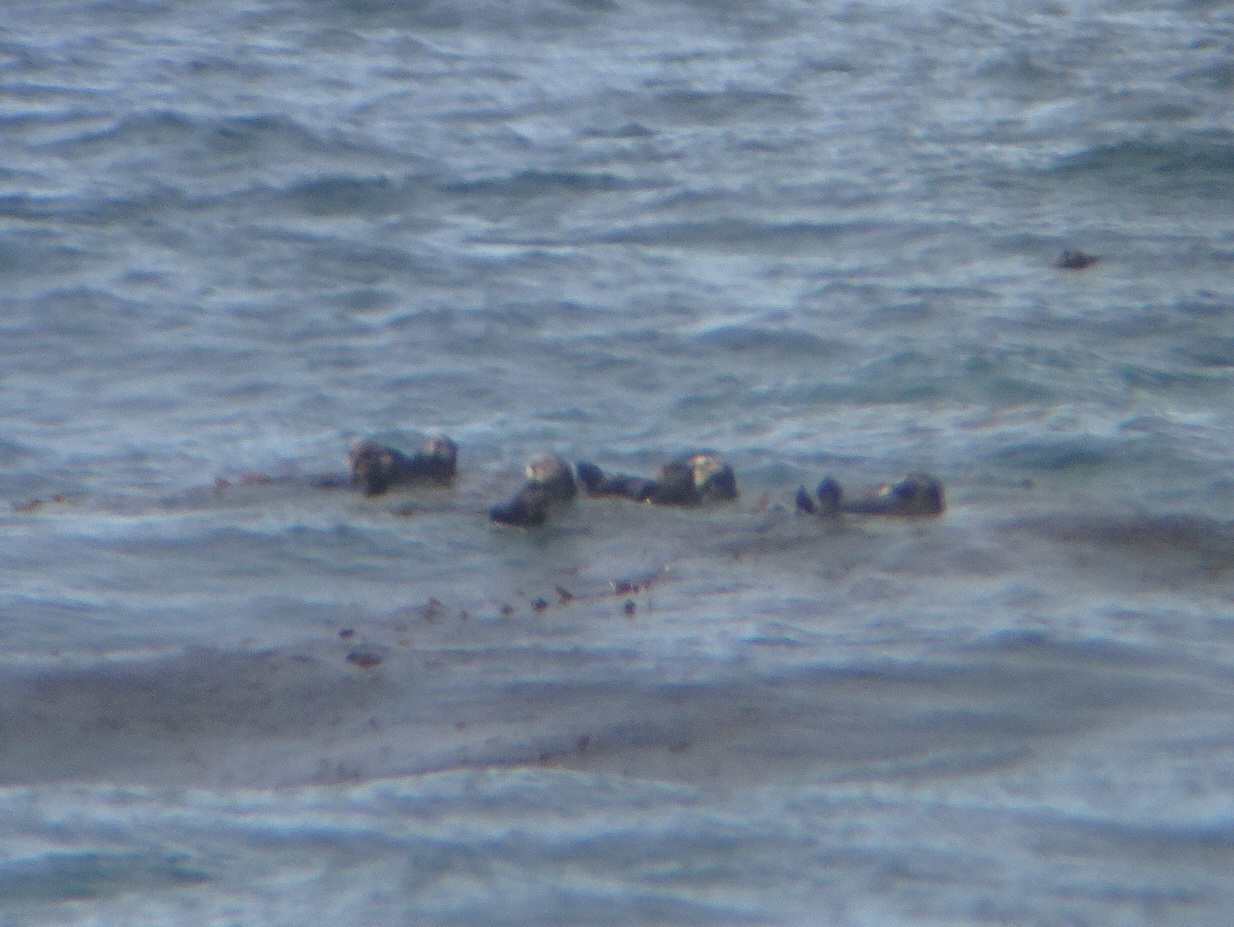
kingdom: Animalia
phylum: Chordata
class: Mammalia
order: Carnivora
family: Mustelidae
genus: Enhydra
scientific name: Enhydra lutris
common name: Sea otter
